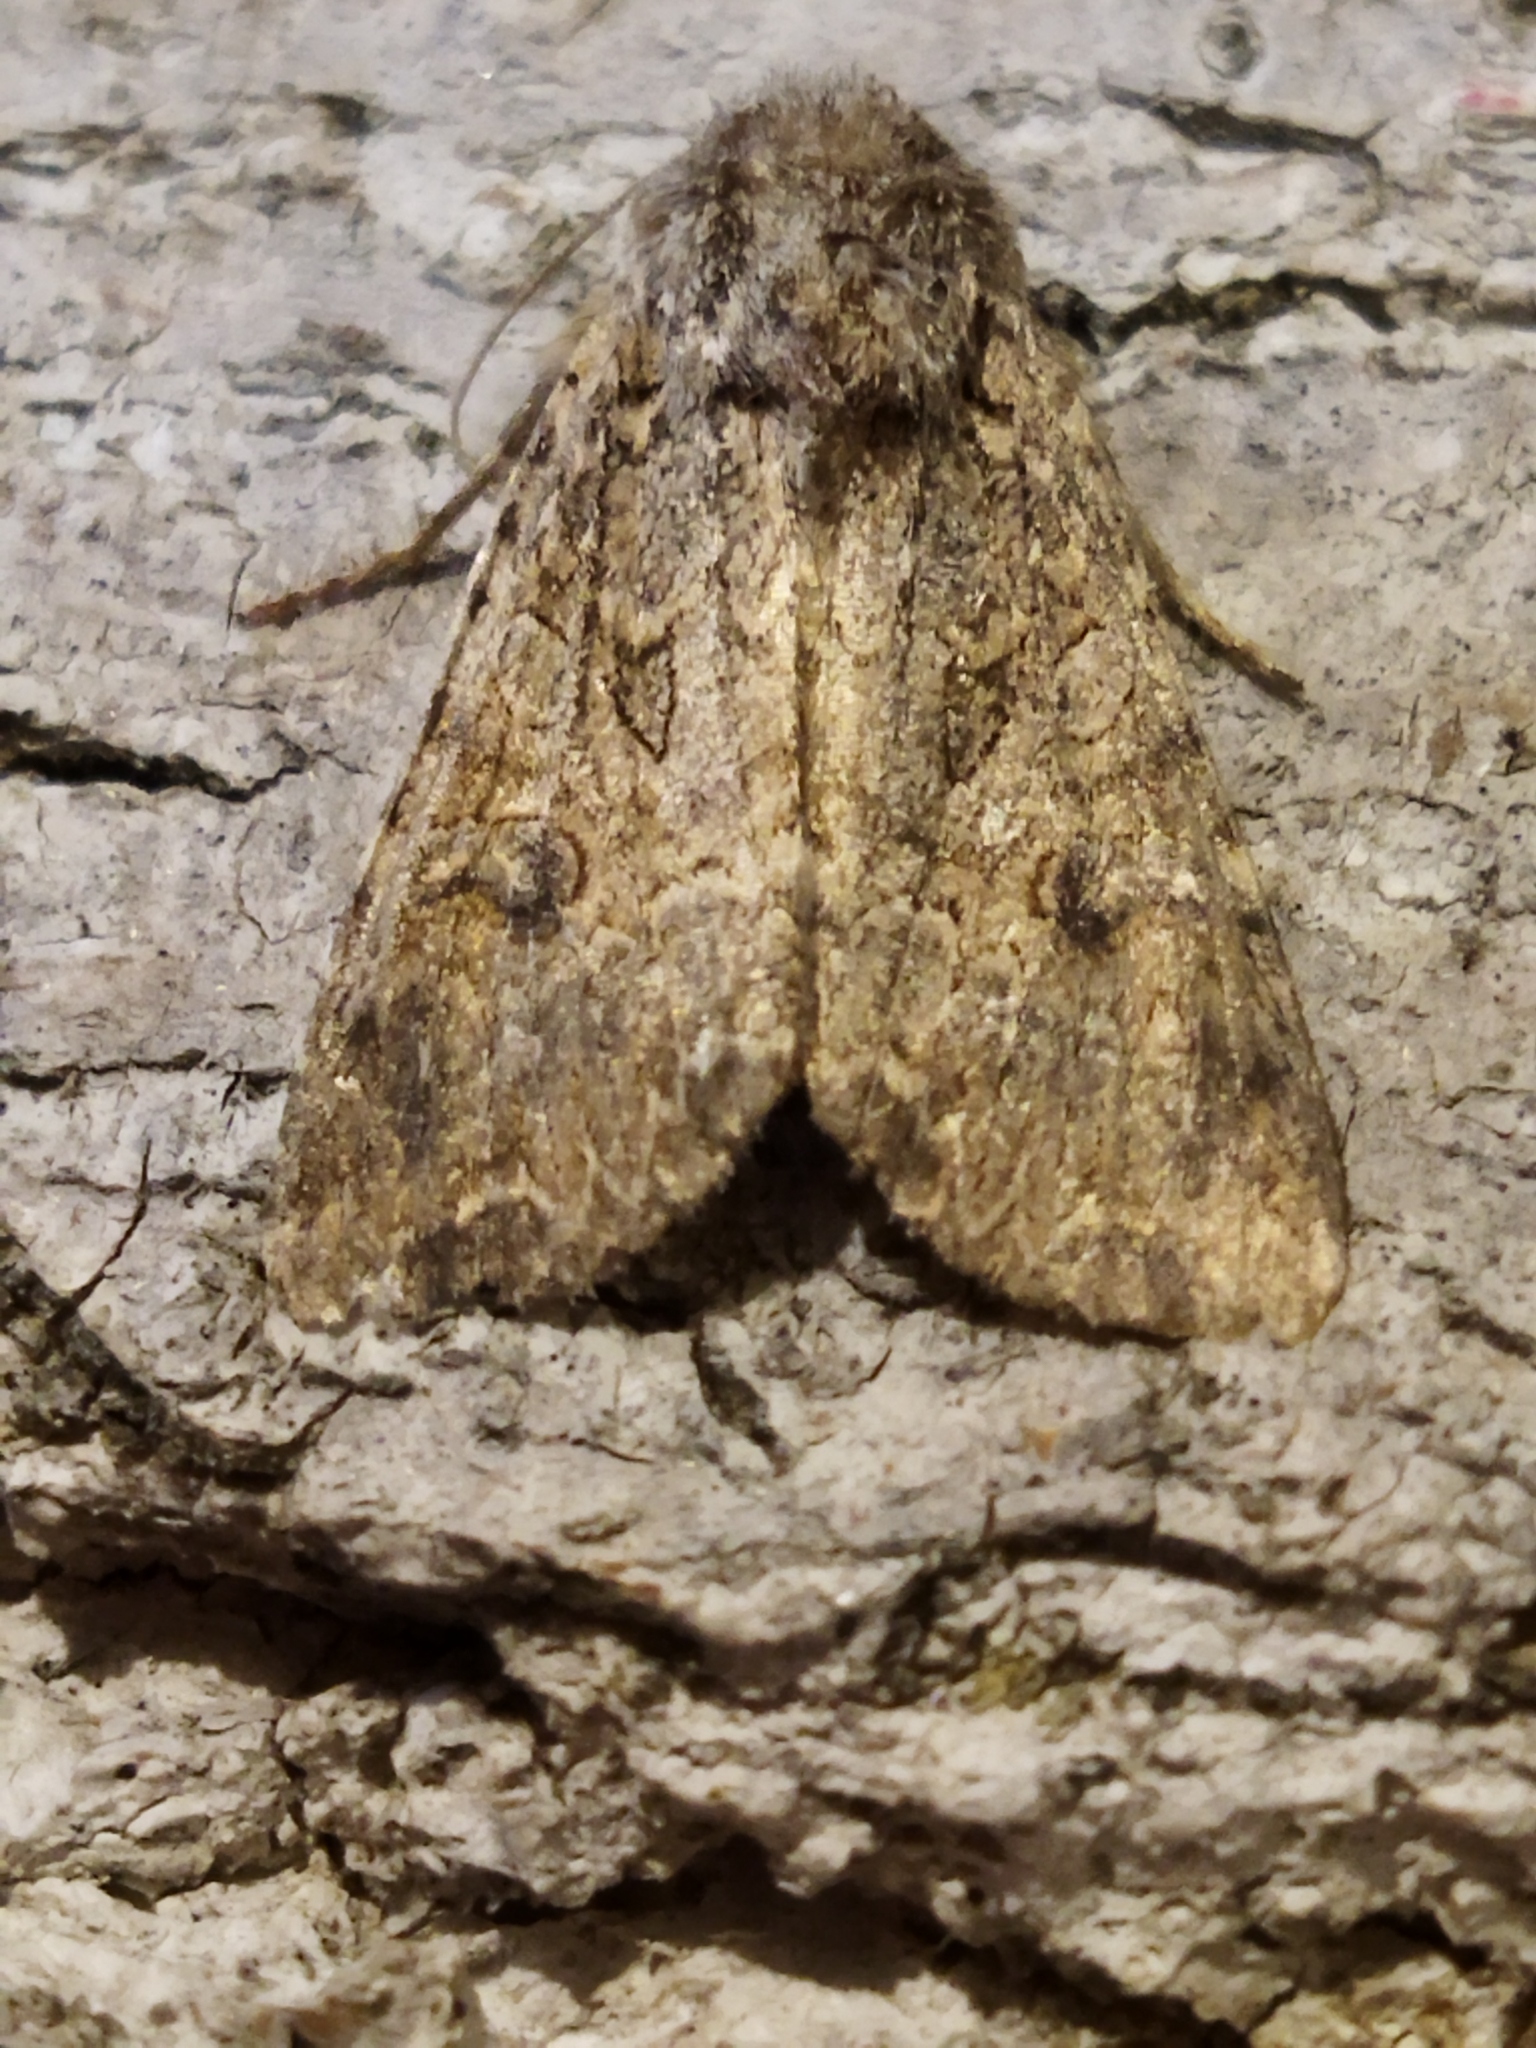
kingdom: Animalia
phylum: Arthropoda
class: Insecta
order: Lepidoptera
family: Noctuidae
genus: Anarta
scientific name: Anarta trifolii
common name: Clover cutworm moth
